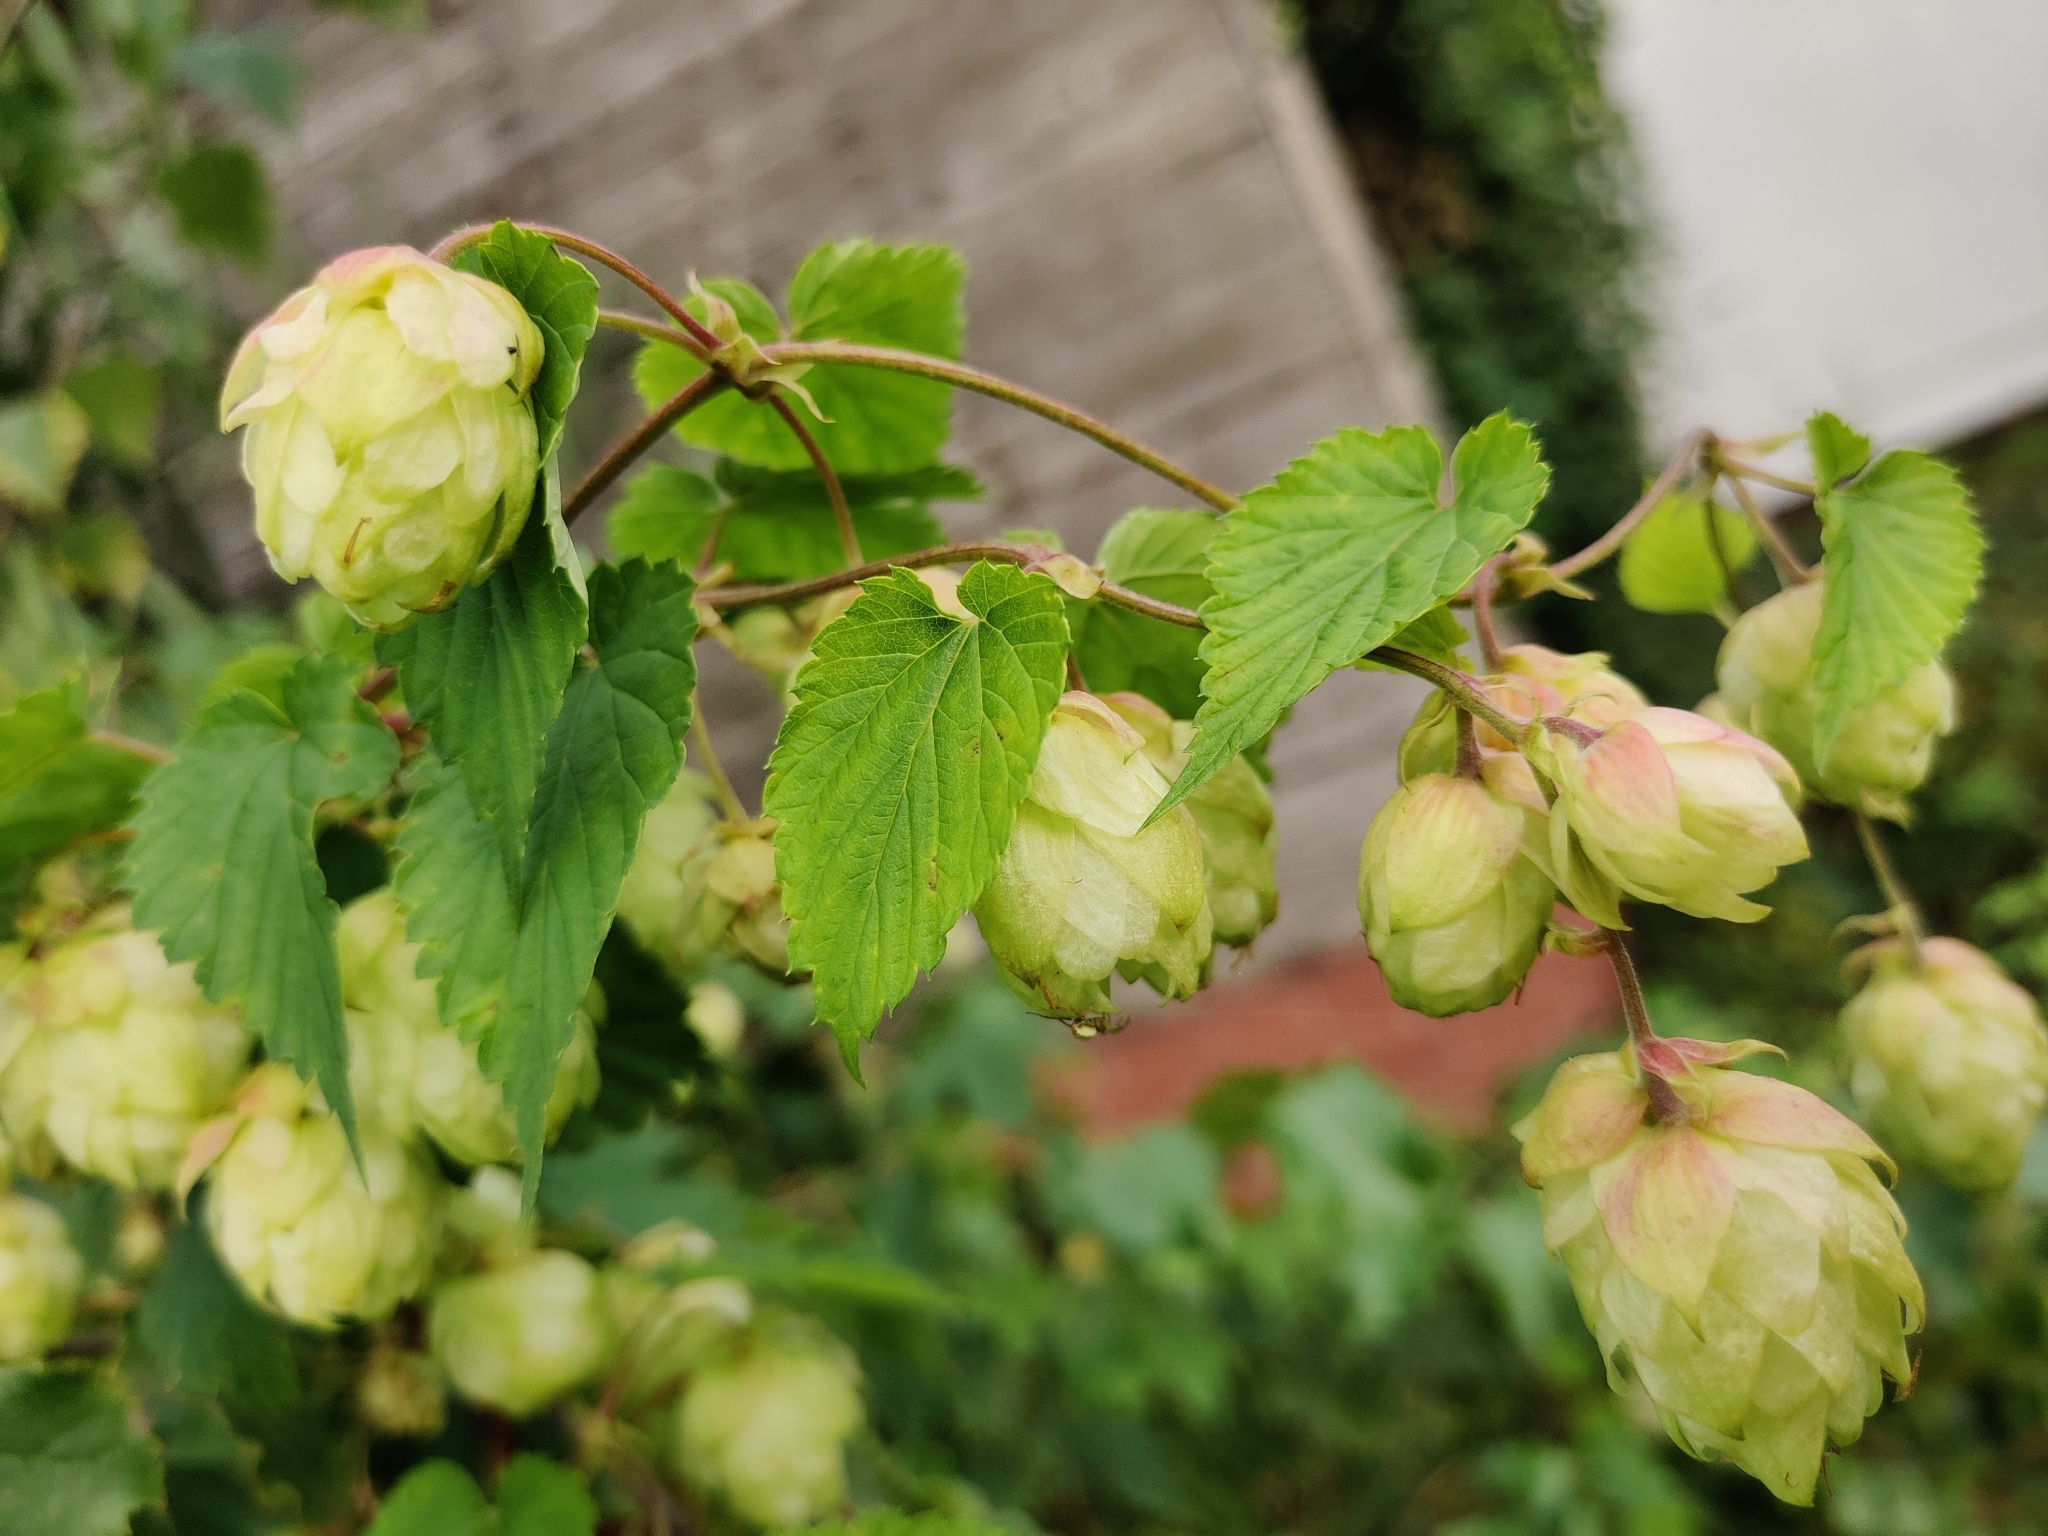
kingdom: Plantae
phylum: Tracheophyta
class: Magnoliopsida
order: Rosales
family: Cannabaceae
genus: Humulus
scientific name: Humulus lupulus
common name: Hop
